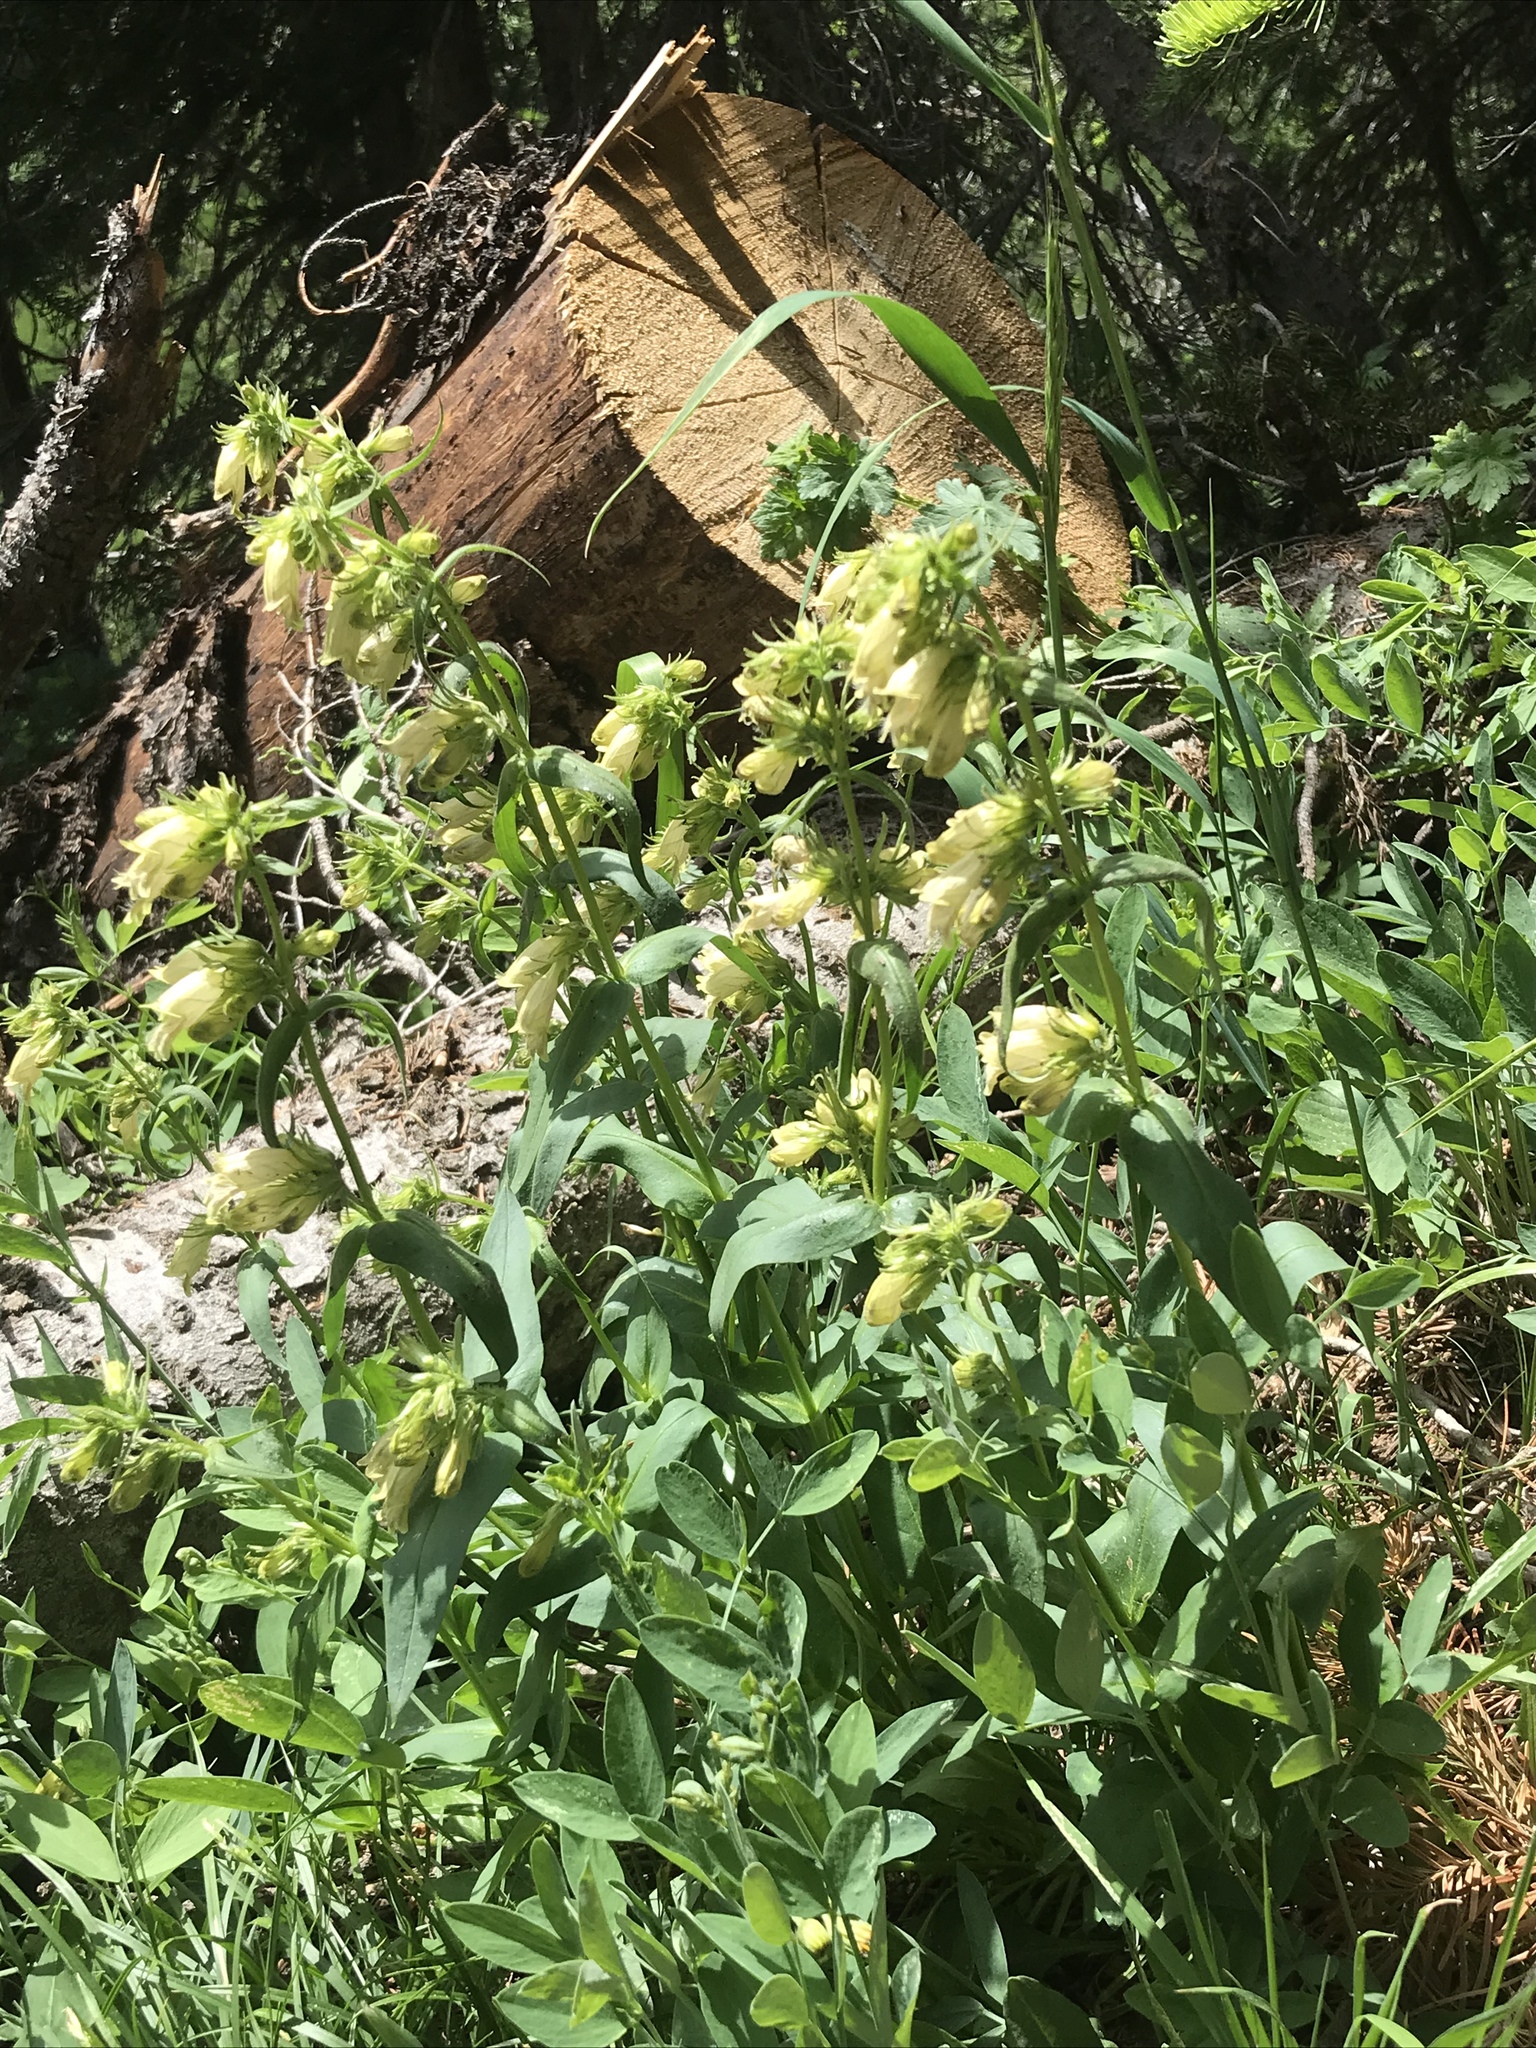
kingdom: Plantae
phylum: Tracheophyta
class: Magnoliopsida
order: Lamiales
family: Plantaginaceae
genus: Penstemon
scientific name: Penstemon whippleanus
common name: Whipple's penstemon
